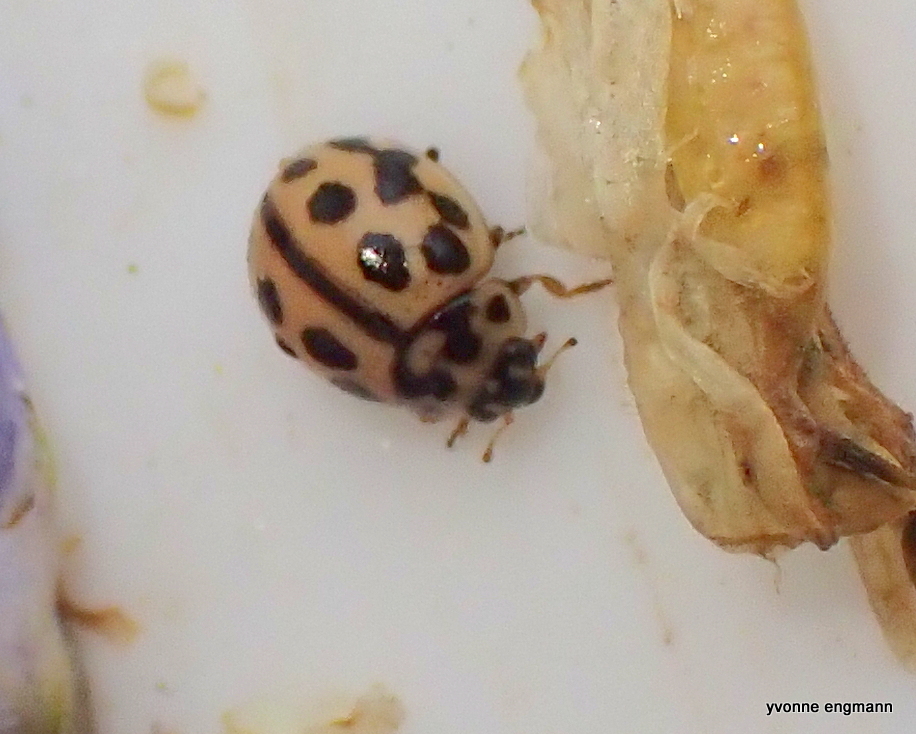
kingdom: Animalia
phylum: Arthropoda
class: Insecta
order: Coleoptera
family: Coccinellidae
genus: Tytthaspis
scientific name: Tytthaspis sedecimpunctata
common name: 16-spot ladybird
